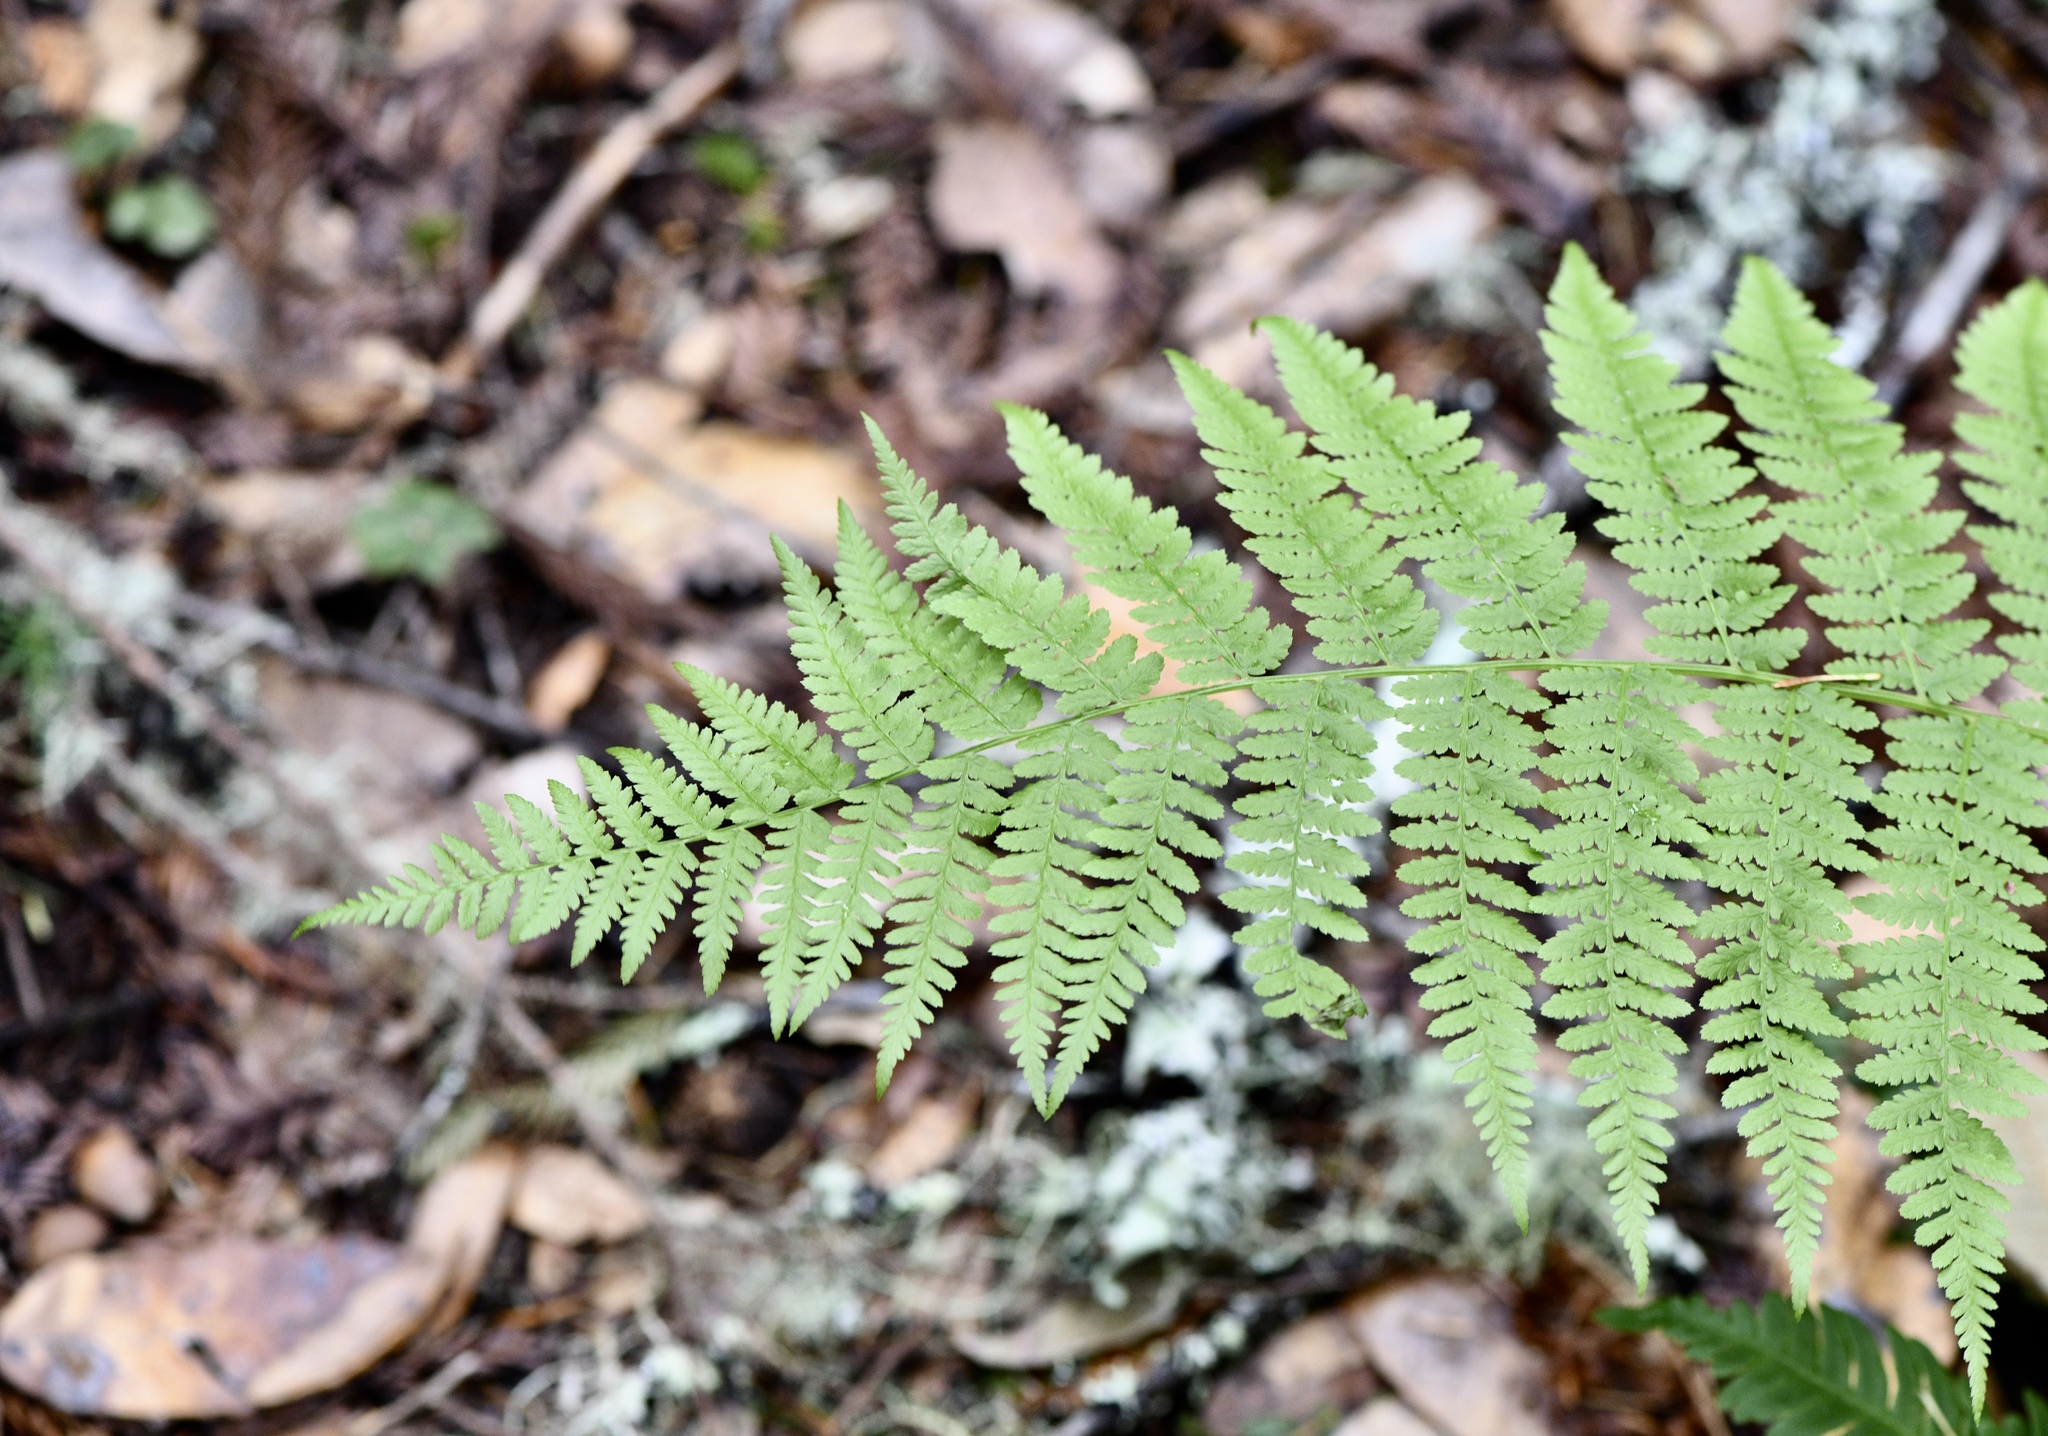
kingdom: Plantae
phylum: Tracheophyta
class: Polypodiopsida
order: Polypodiales
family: Athyriaceae
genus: Athyrium
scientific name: Athyrium filix-femina
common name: Lady fern
